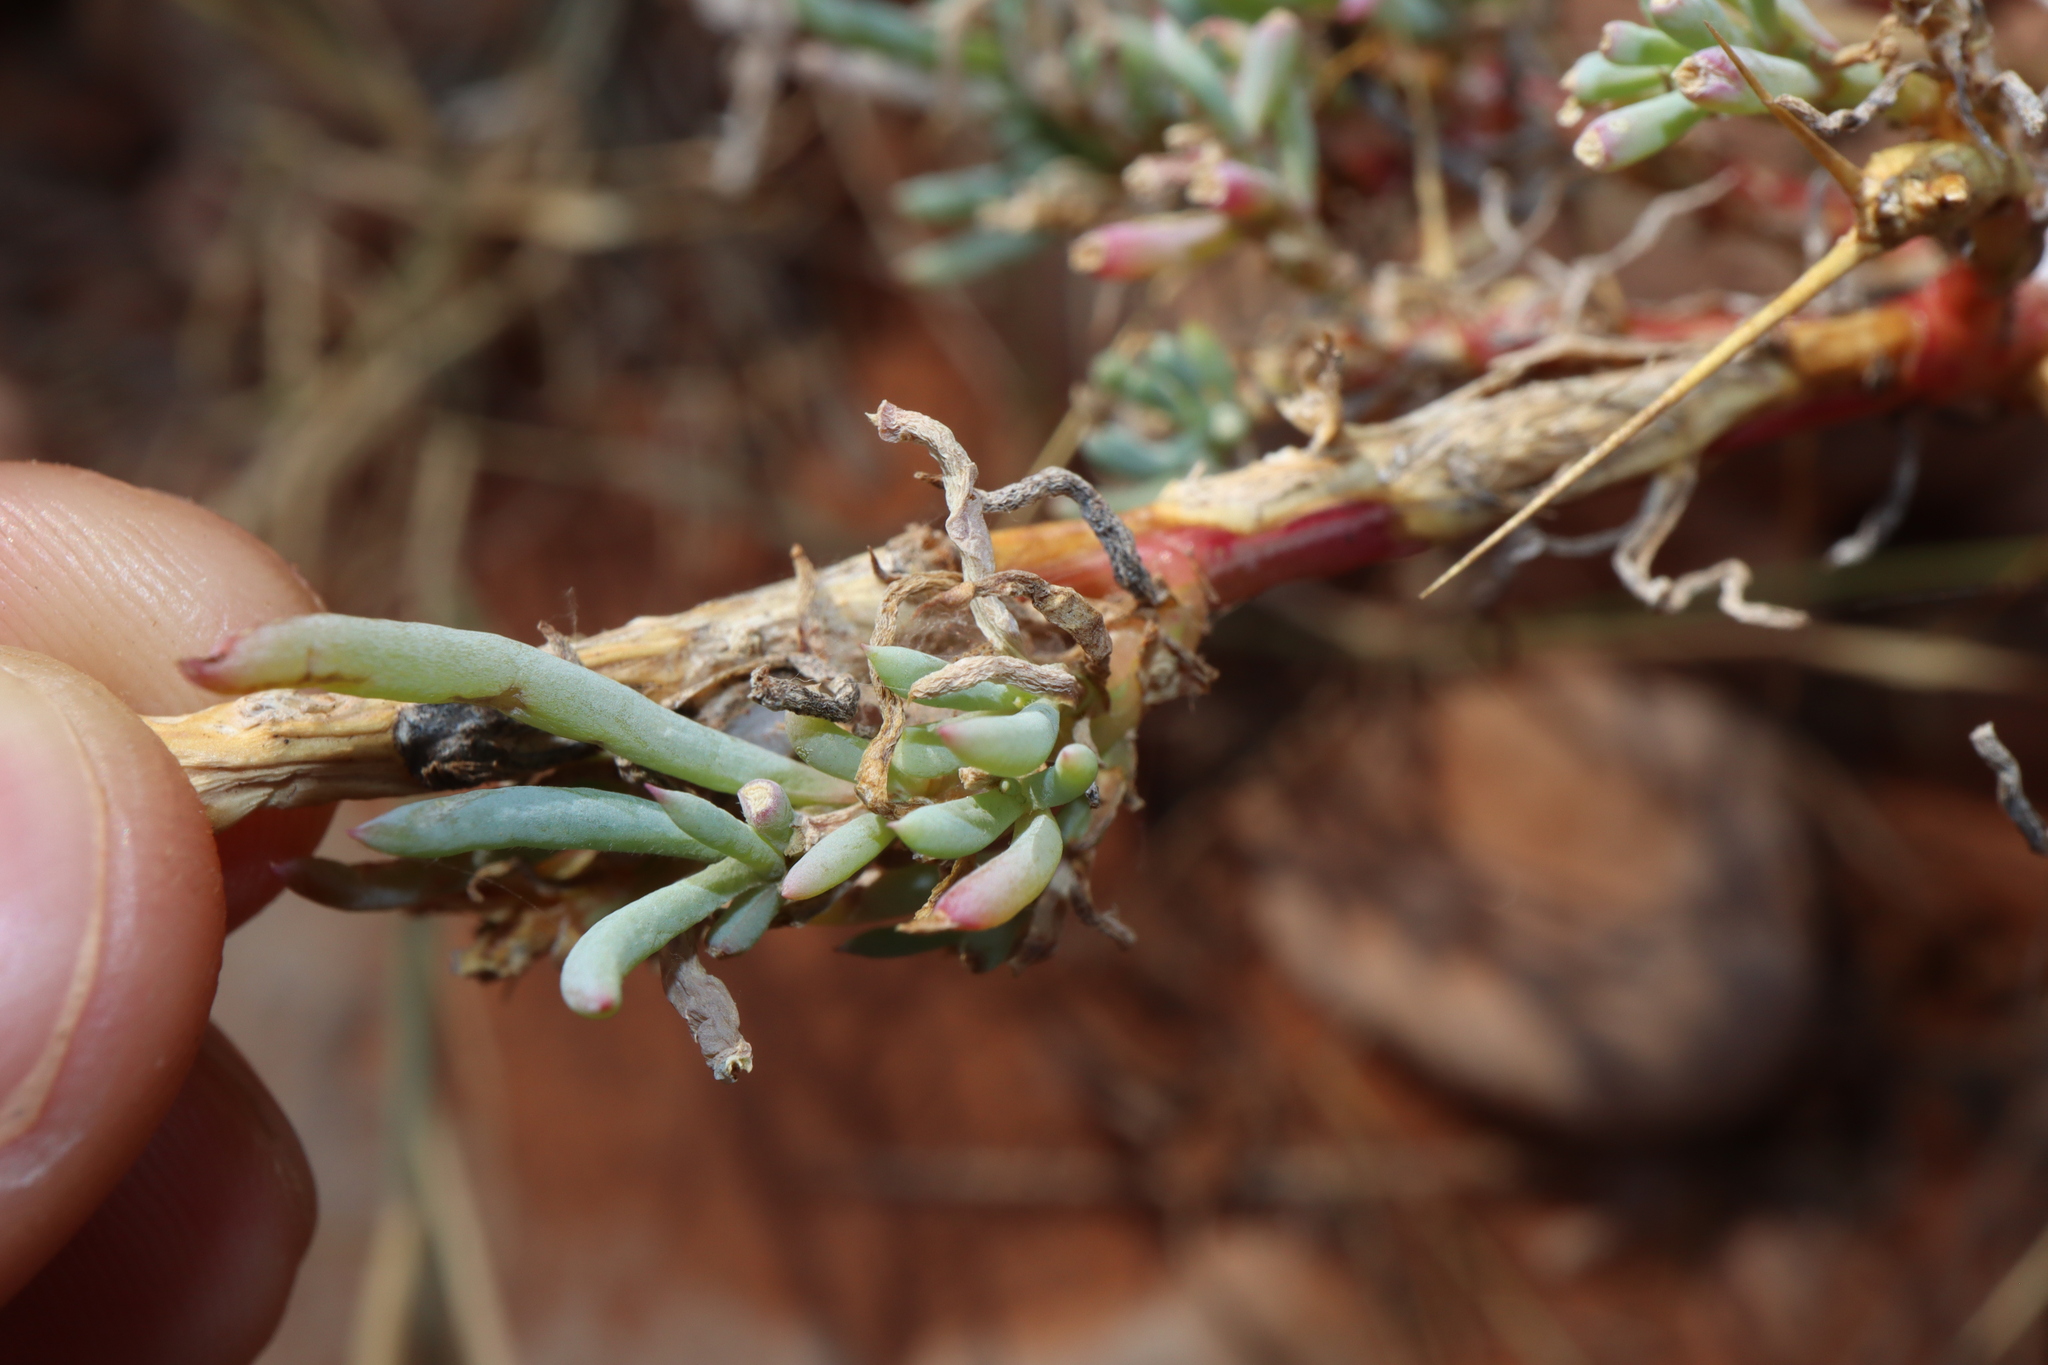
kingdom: Plantae
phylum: Tracheophyta
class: Magnoliopsida
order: Caryophyllales
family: Amaranthaceae
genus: Sclerolaena
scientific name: Sclerolaena longicuspis
